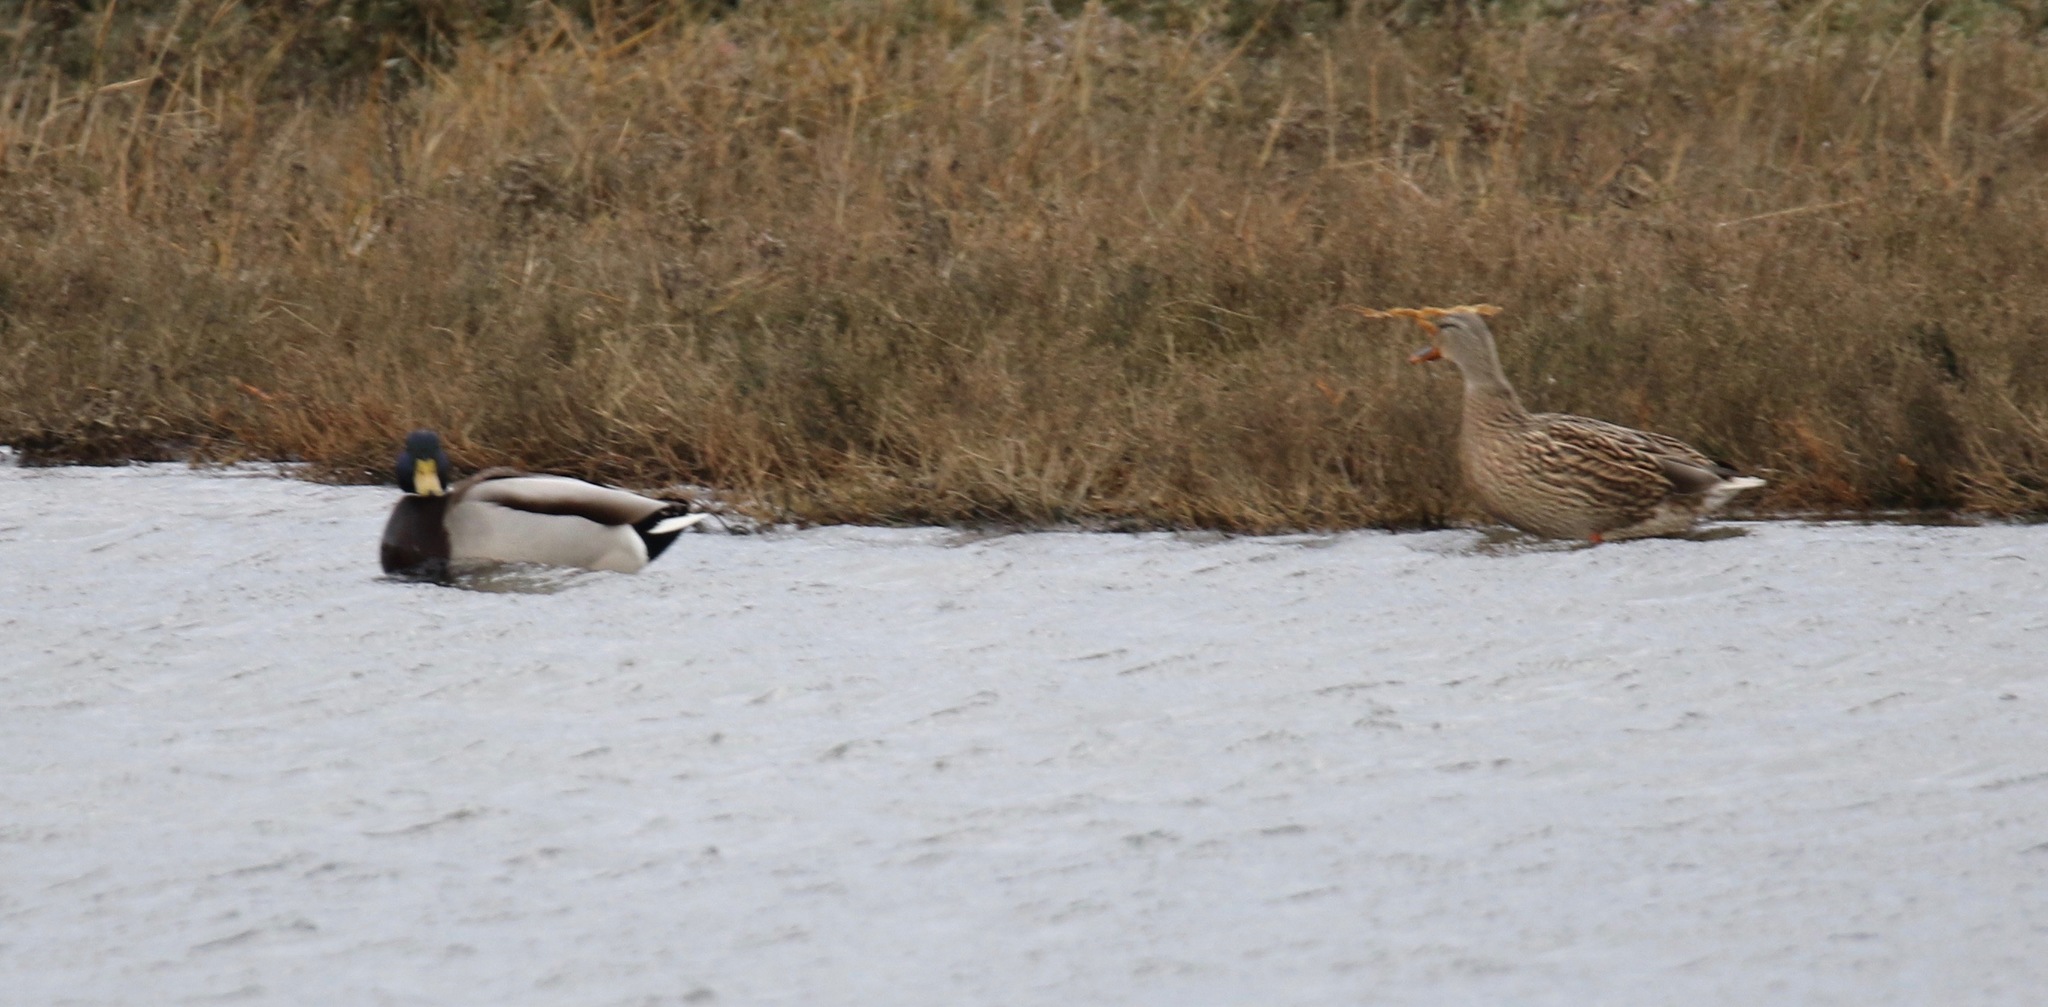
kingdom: Animalia
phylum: Chordata
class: Aves
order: Anseriformes
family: Anatidae
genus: Anas
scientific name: Anas platyrhynchos
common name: Mallard
